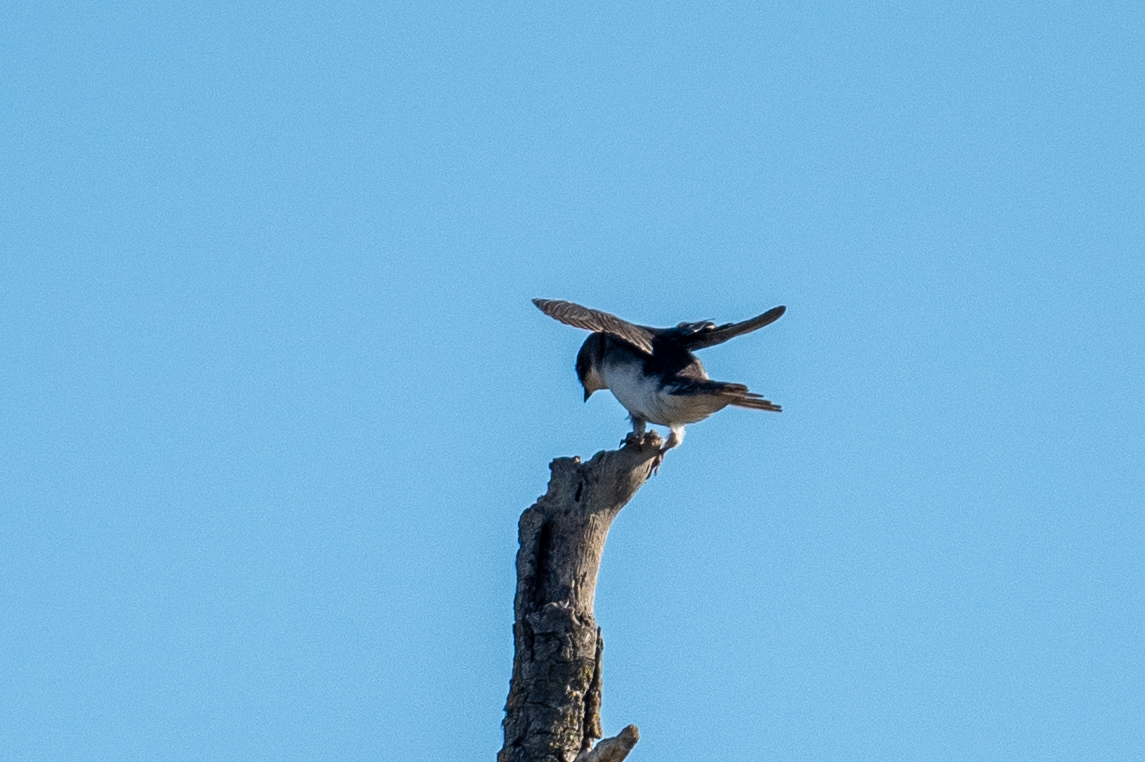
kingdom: Animalia
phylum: Chordata
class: Aves
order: Passeriformes
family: Hirundinidae
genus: Tachycineta
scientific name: Tachycineta bicolor
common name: Tree swallow
